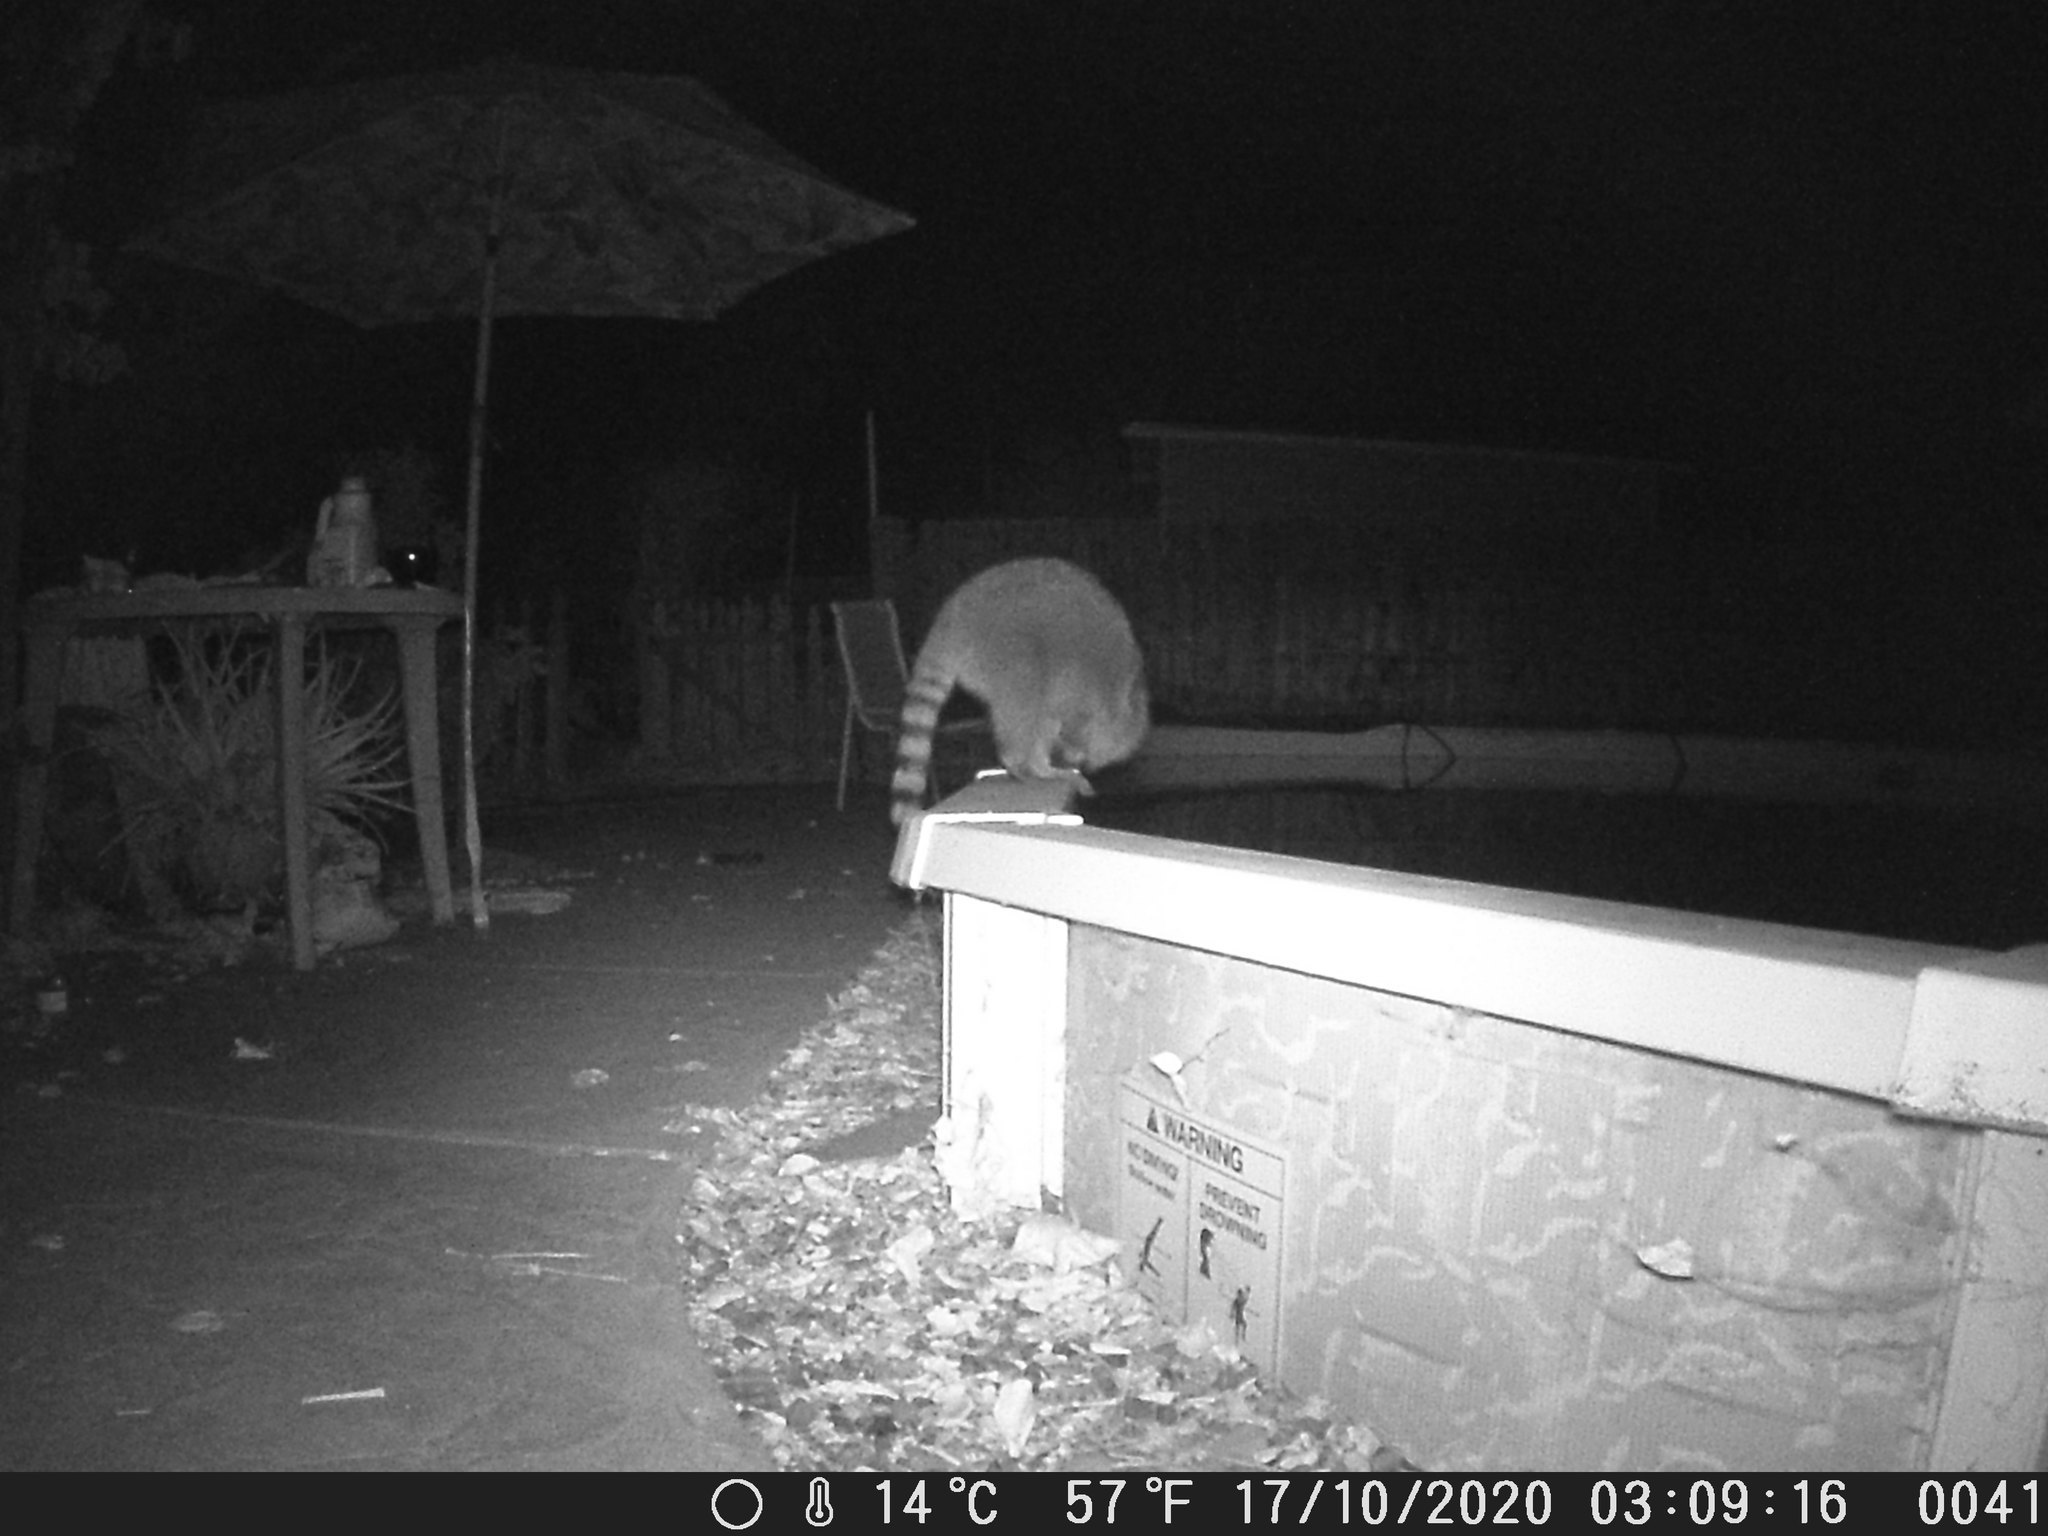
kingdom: Animalia
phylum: Chordata
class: Mammalia
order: Carnivora
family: Procyonidae
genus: Procyon
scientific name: Procyon lotor
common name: Raccoon
